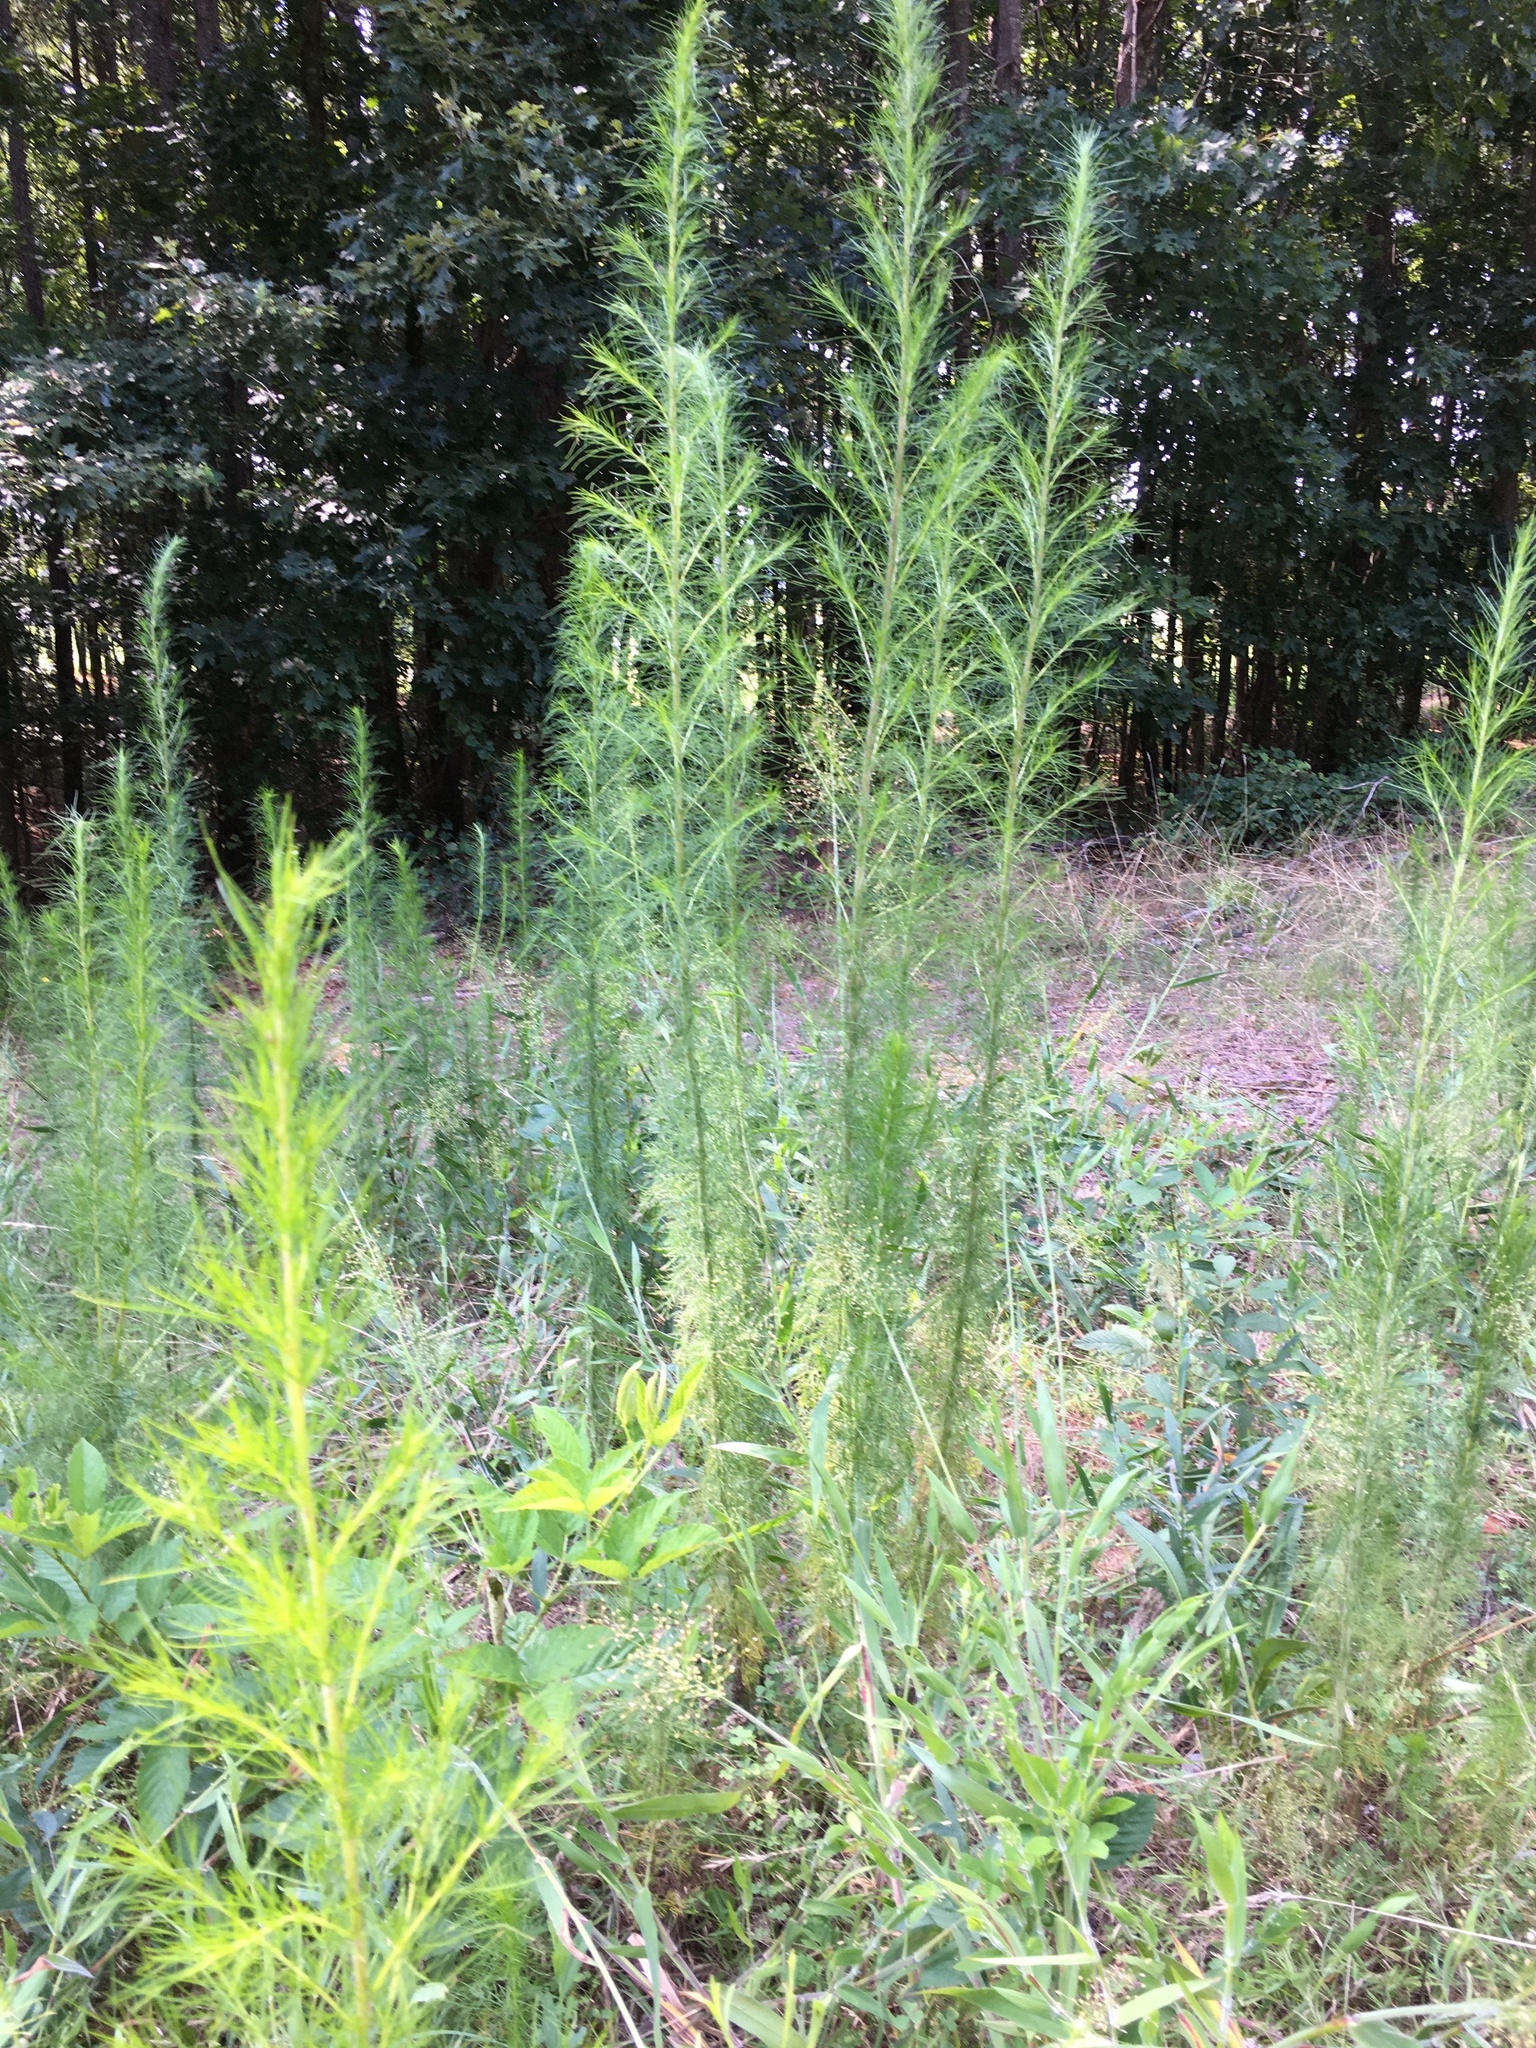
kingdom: Plantae
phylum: Tracheophyta
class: Magnoliopsida
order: Asterales
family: Asteraceae
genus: Eupatorium
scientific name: Eupatorium capillifolium
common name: Dog-fennel
